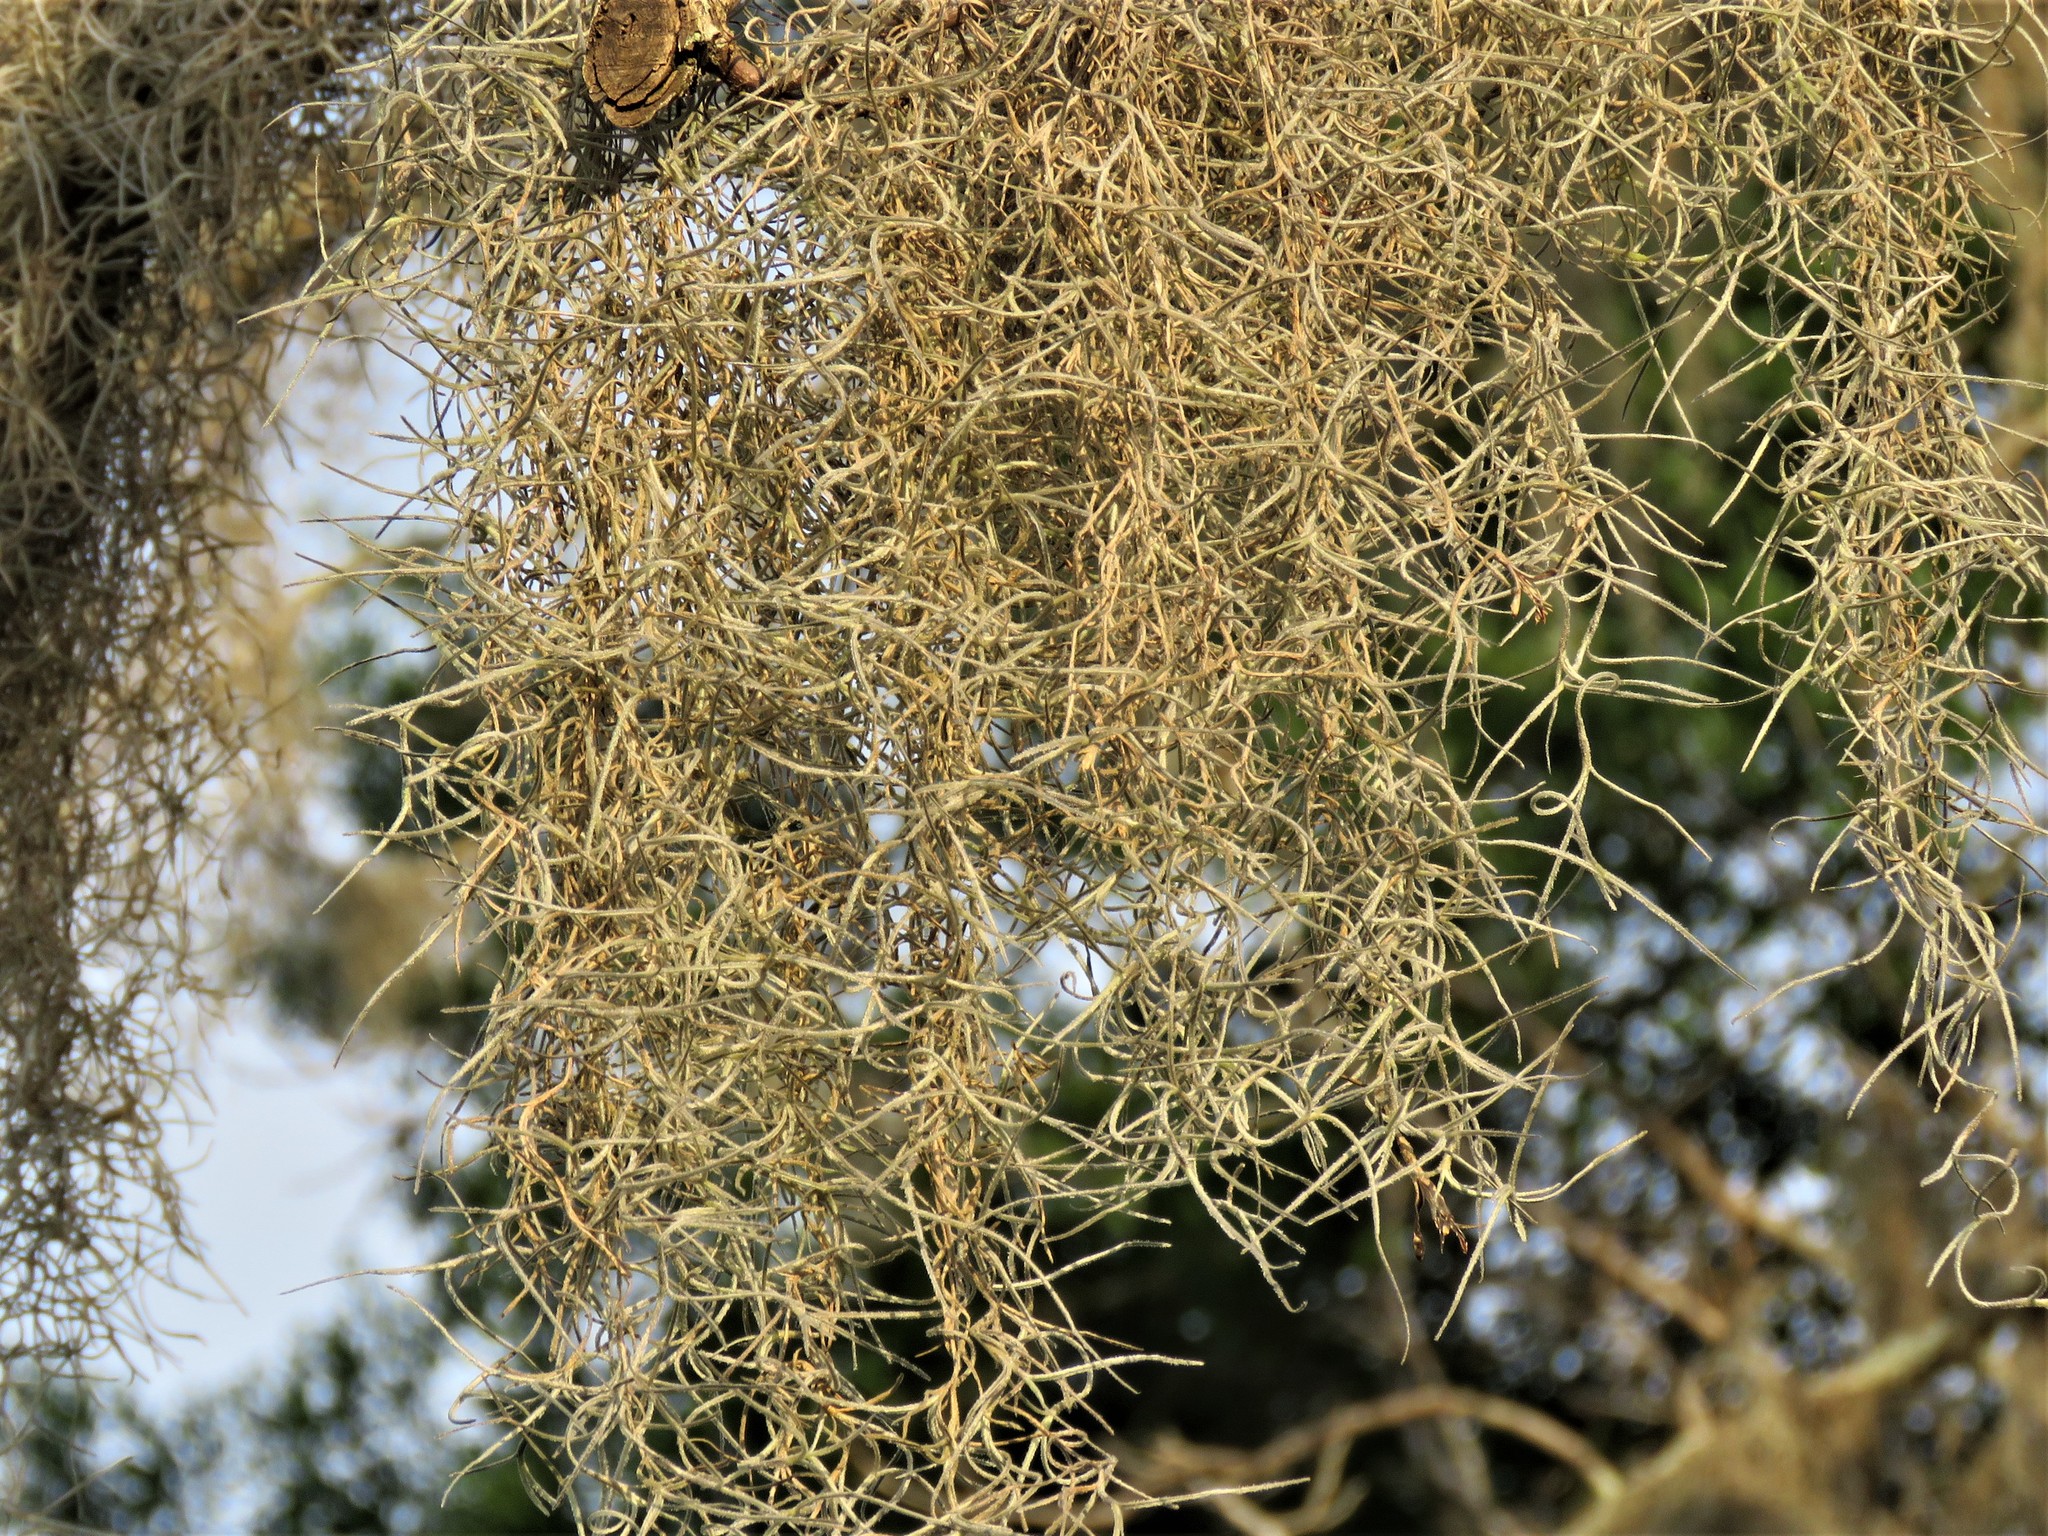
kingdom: Plantae
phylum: Tracheophyta
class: Liliopsida
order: Poales
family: Bromeliaceae
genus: Tillandsia
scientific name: Tillandsia usneoides
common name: Spanish moss
